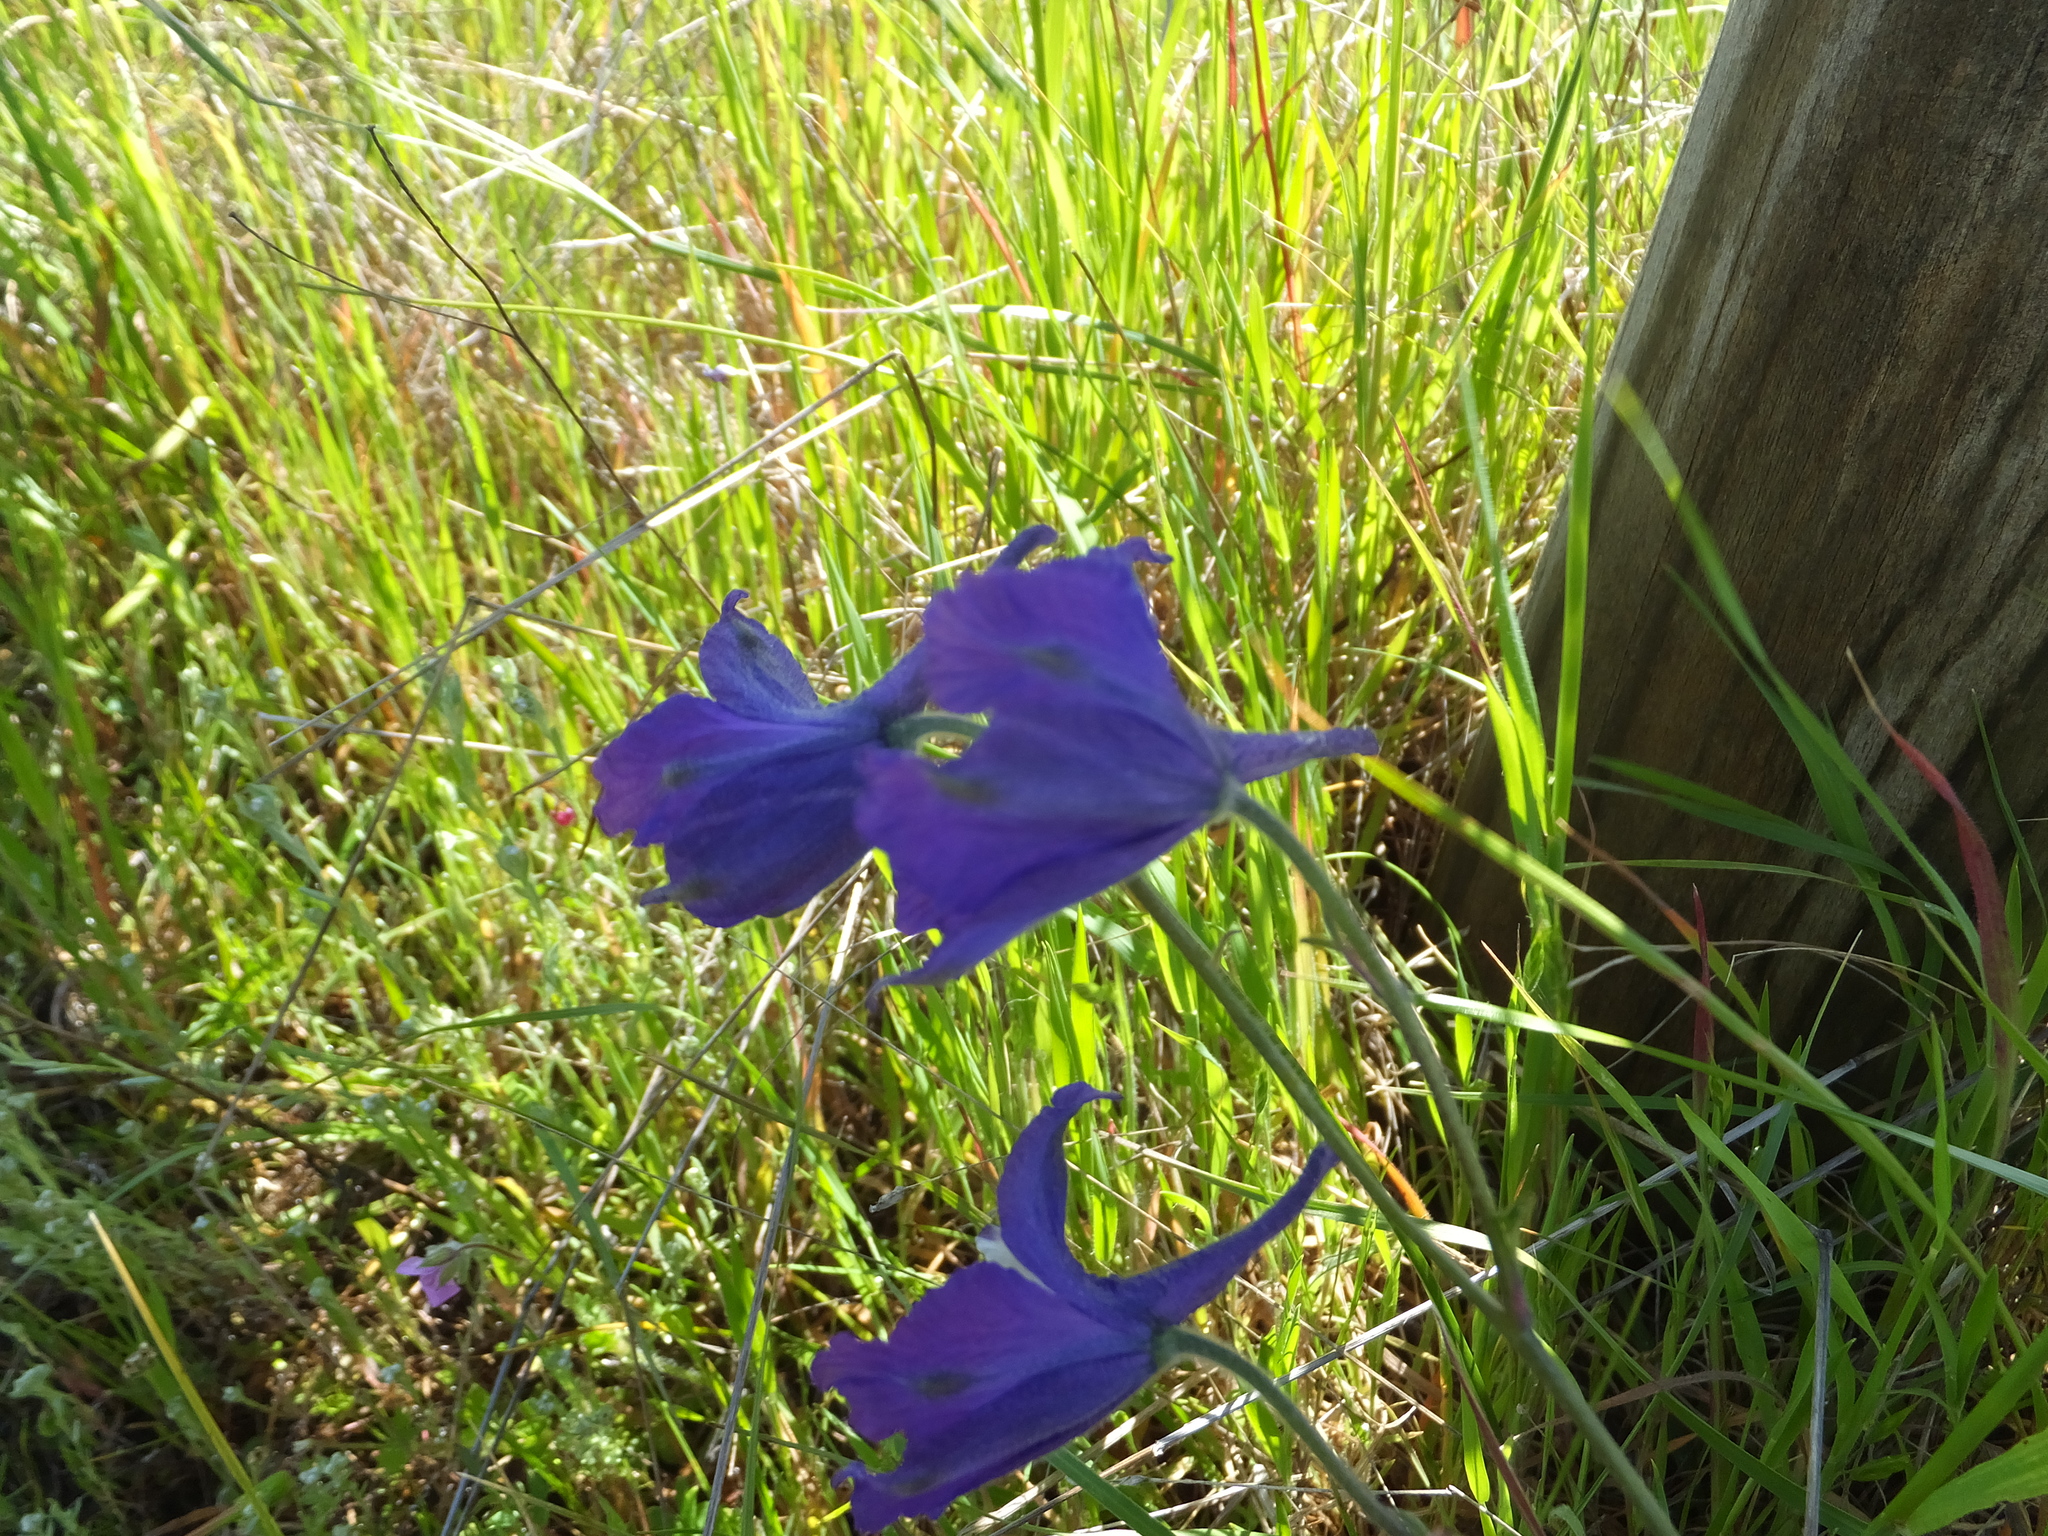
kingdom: Plantae
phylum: Tracheophyta
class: Magnoliopsida
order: Ranunculales
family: Ranunculaceae
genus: Delphinium
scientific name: Delphinium variegatum
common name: Royal larkspur
